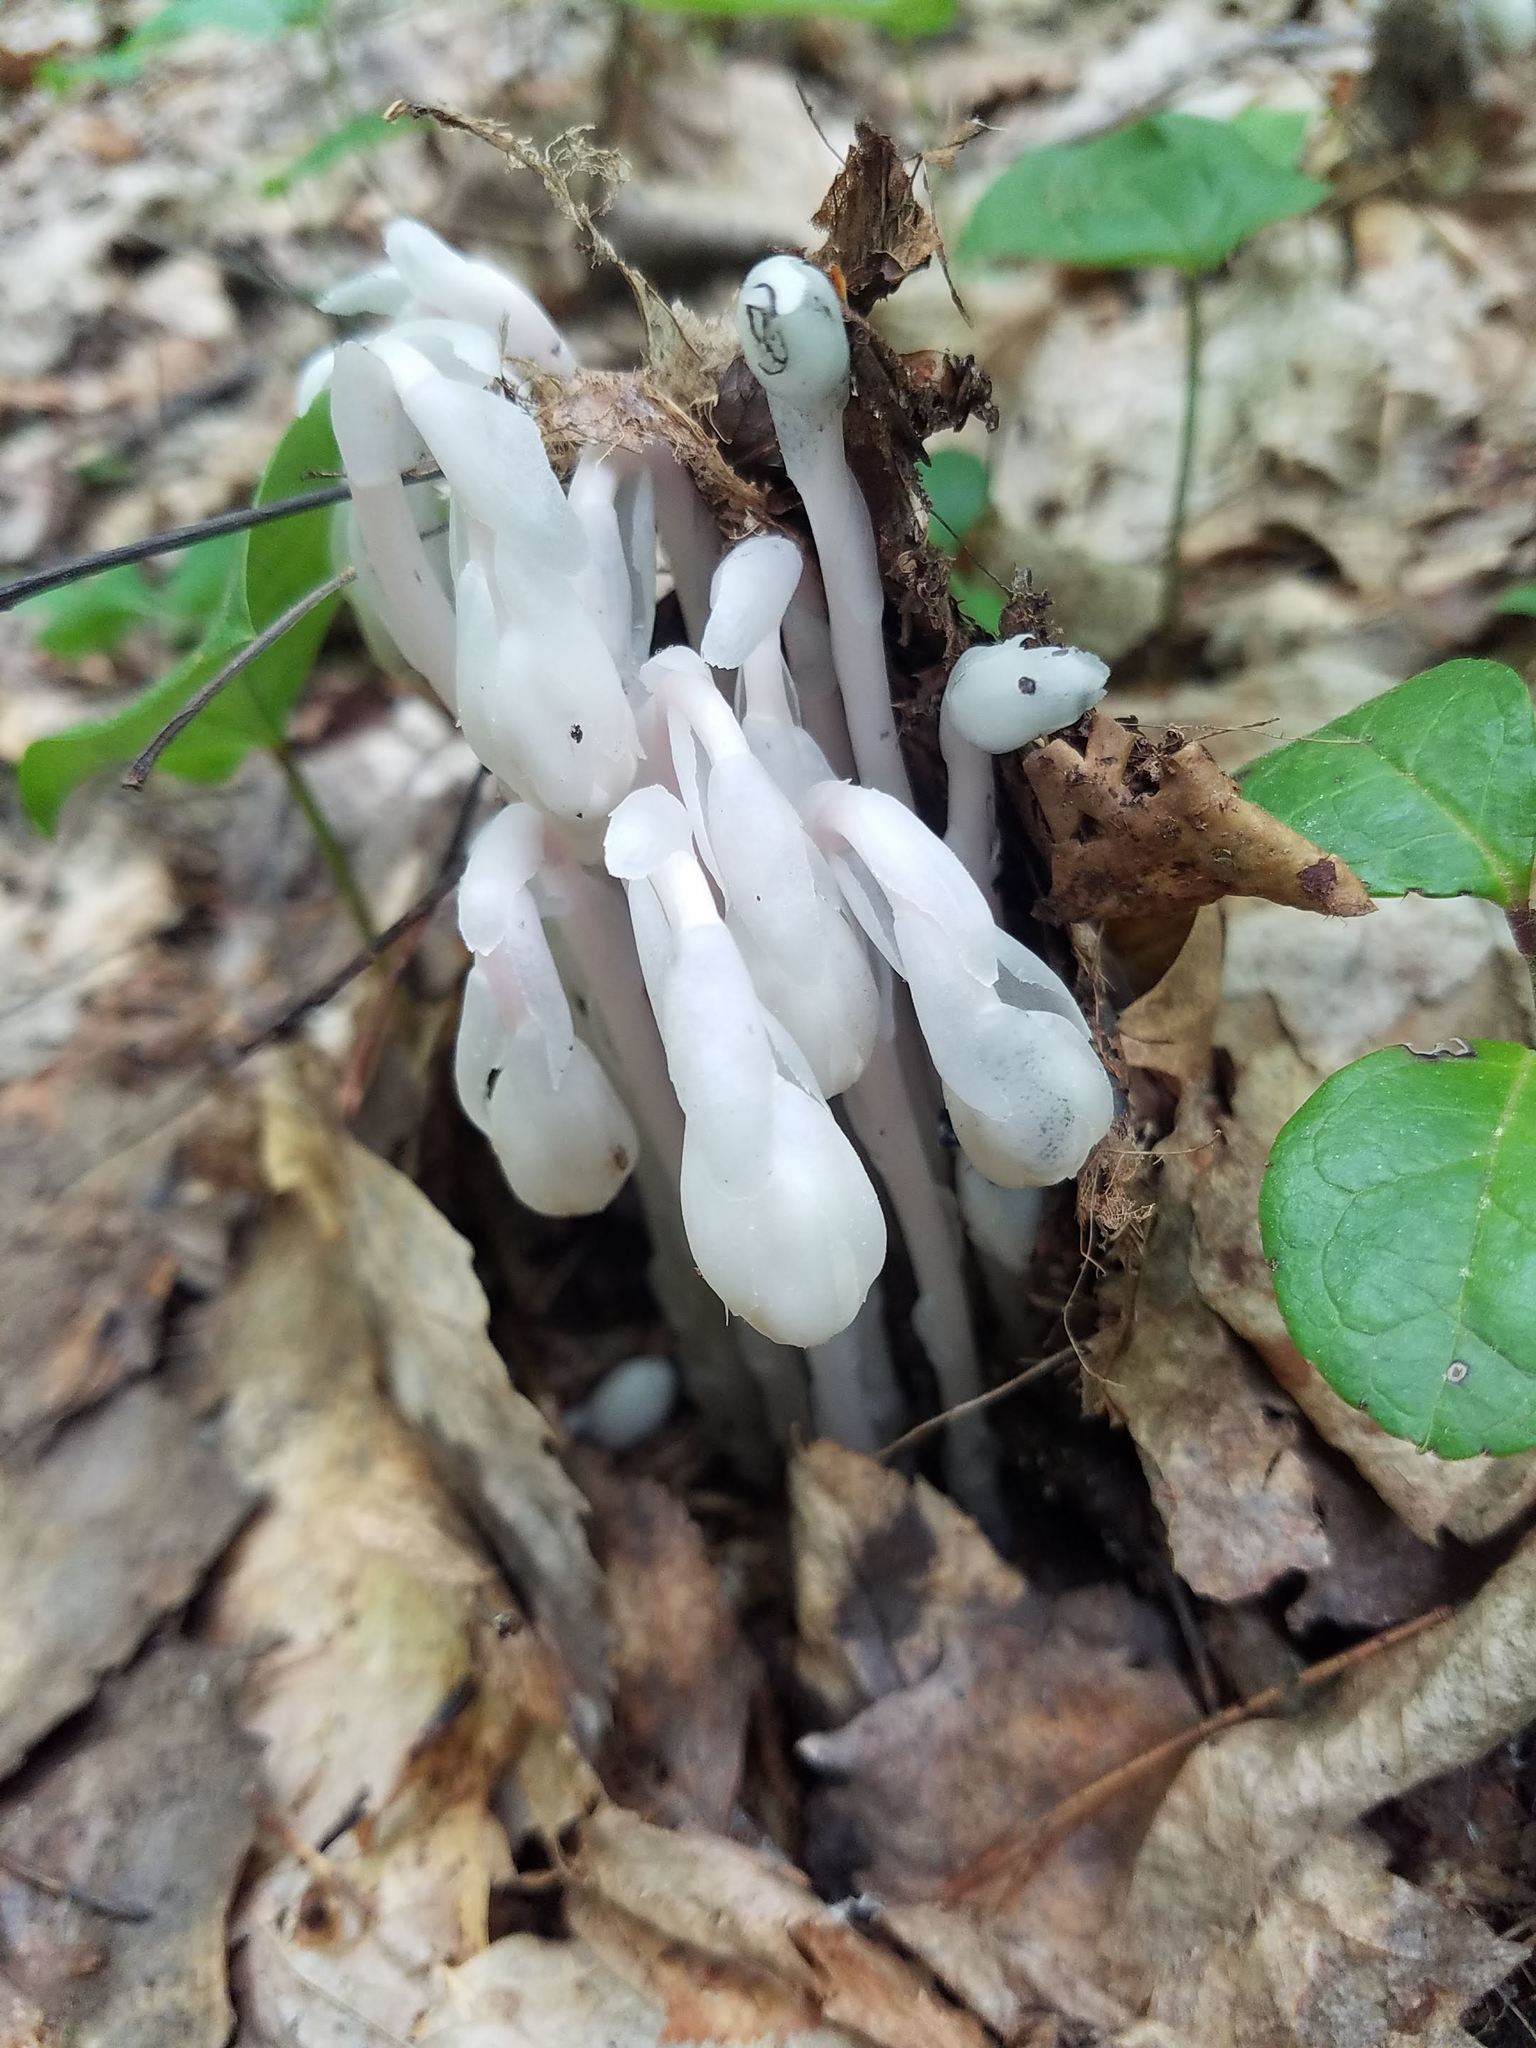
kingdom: Plantae
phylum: Tracheophyta
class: Magnoliopsida
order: Ericales
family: Ericaceae
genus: Monotropa
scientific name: Monotropa uniflora
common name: Convulsion root
